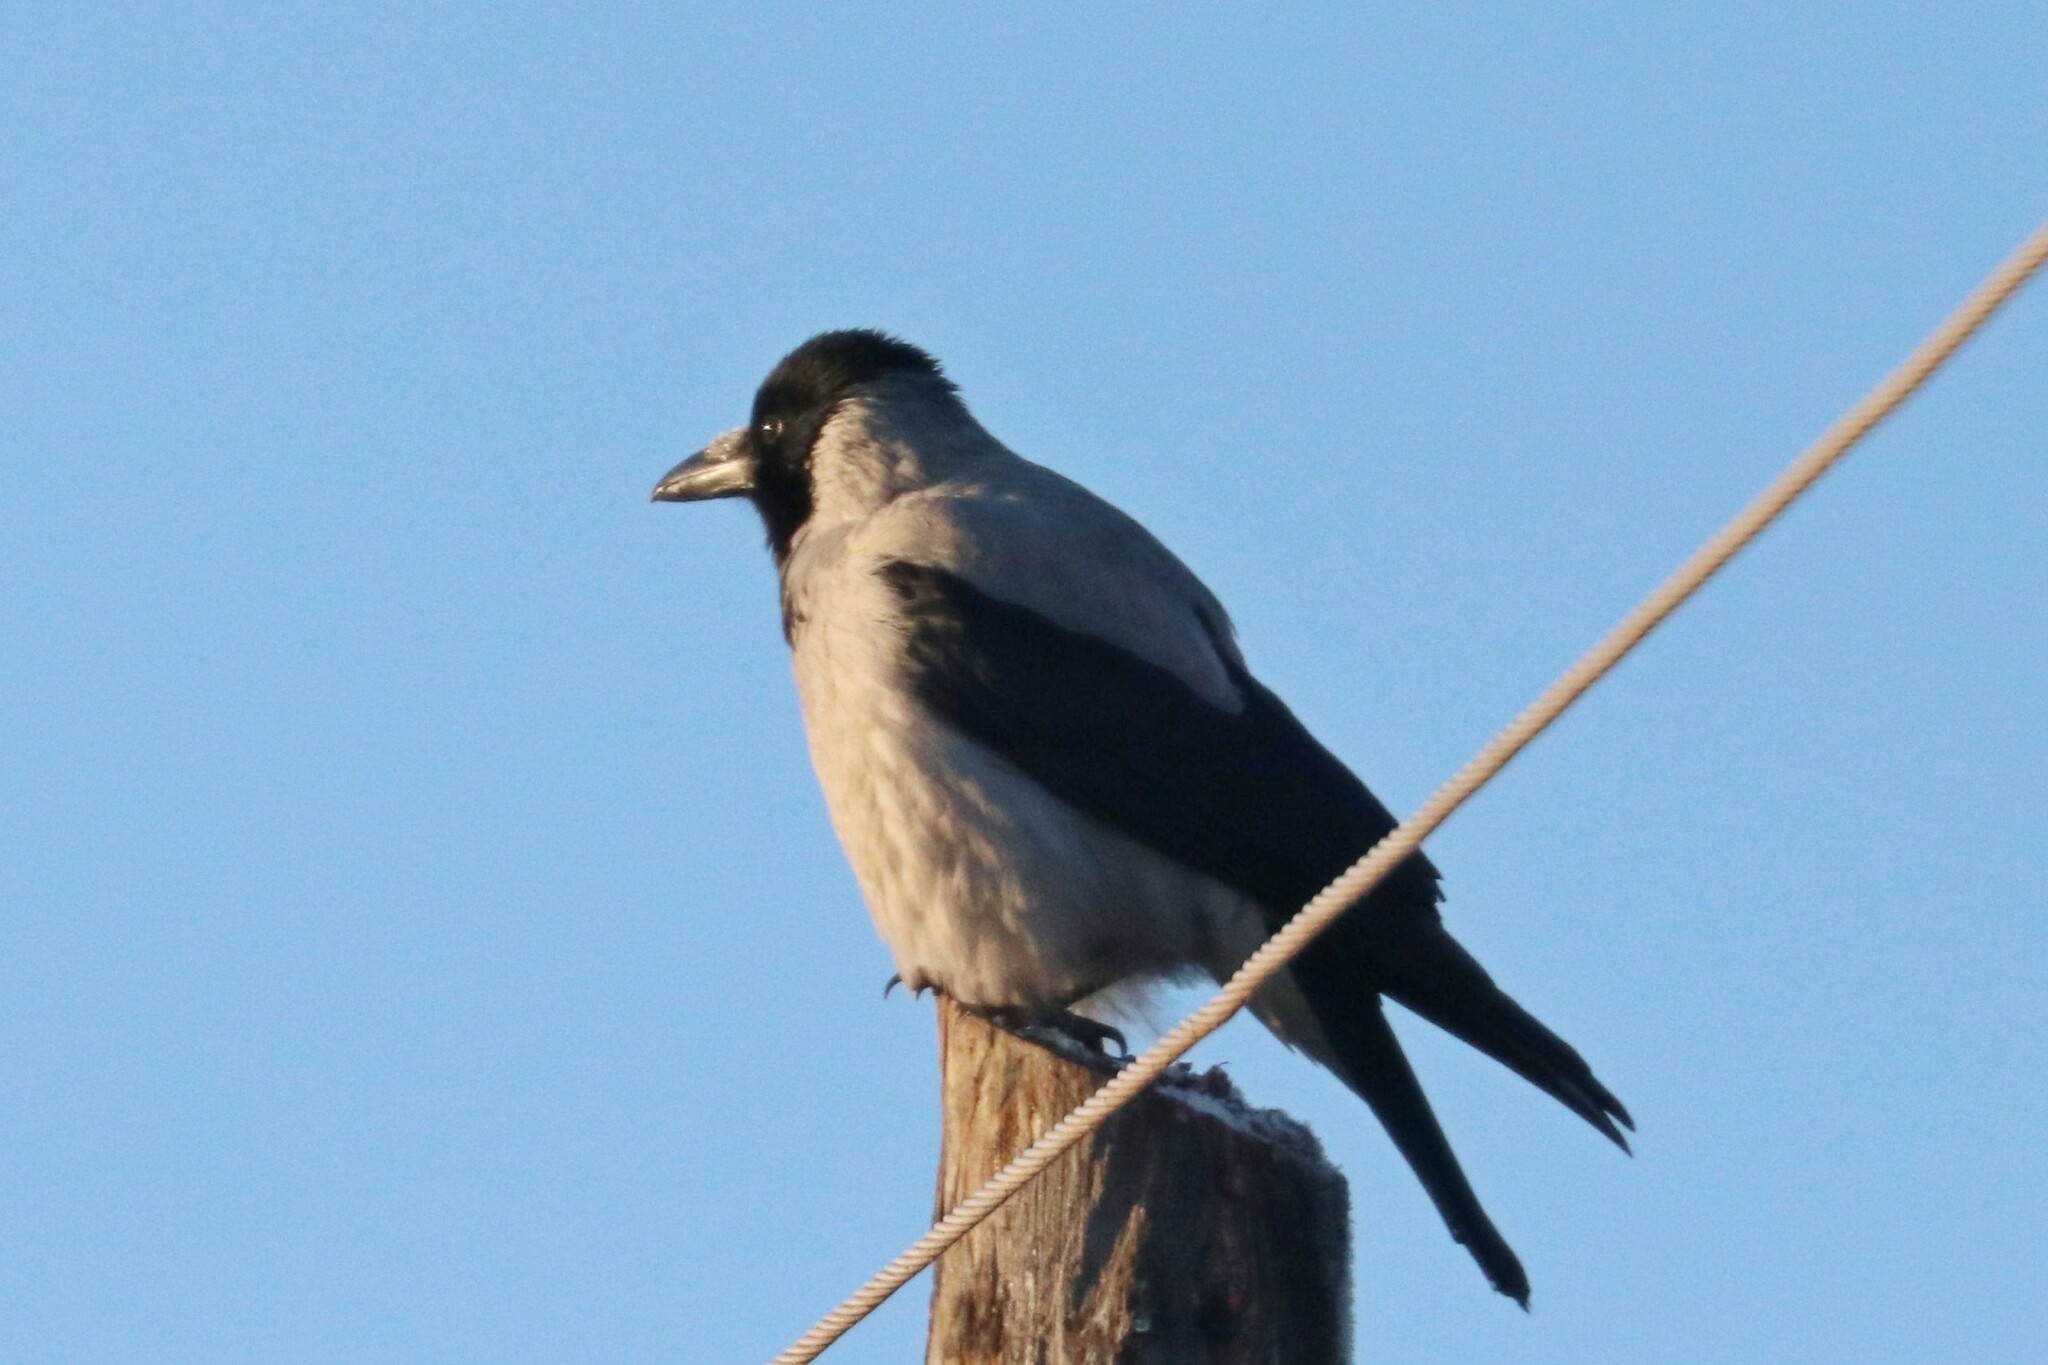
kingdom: Animalia
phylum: Chordata
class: Aves
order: Passeriformes
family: Corvidae
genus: Corvus
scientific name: Corvus cornix
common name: Hooded crow
